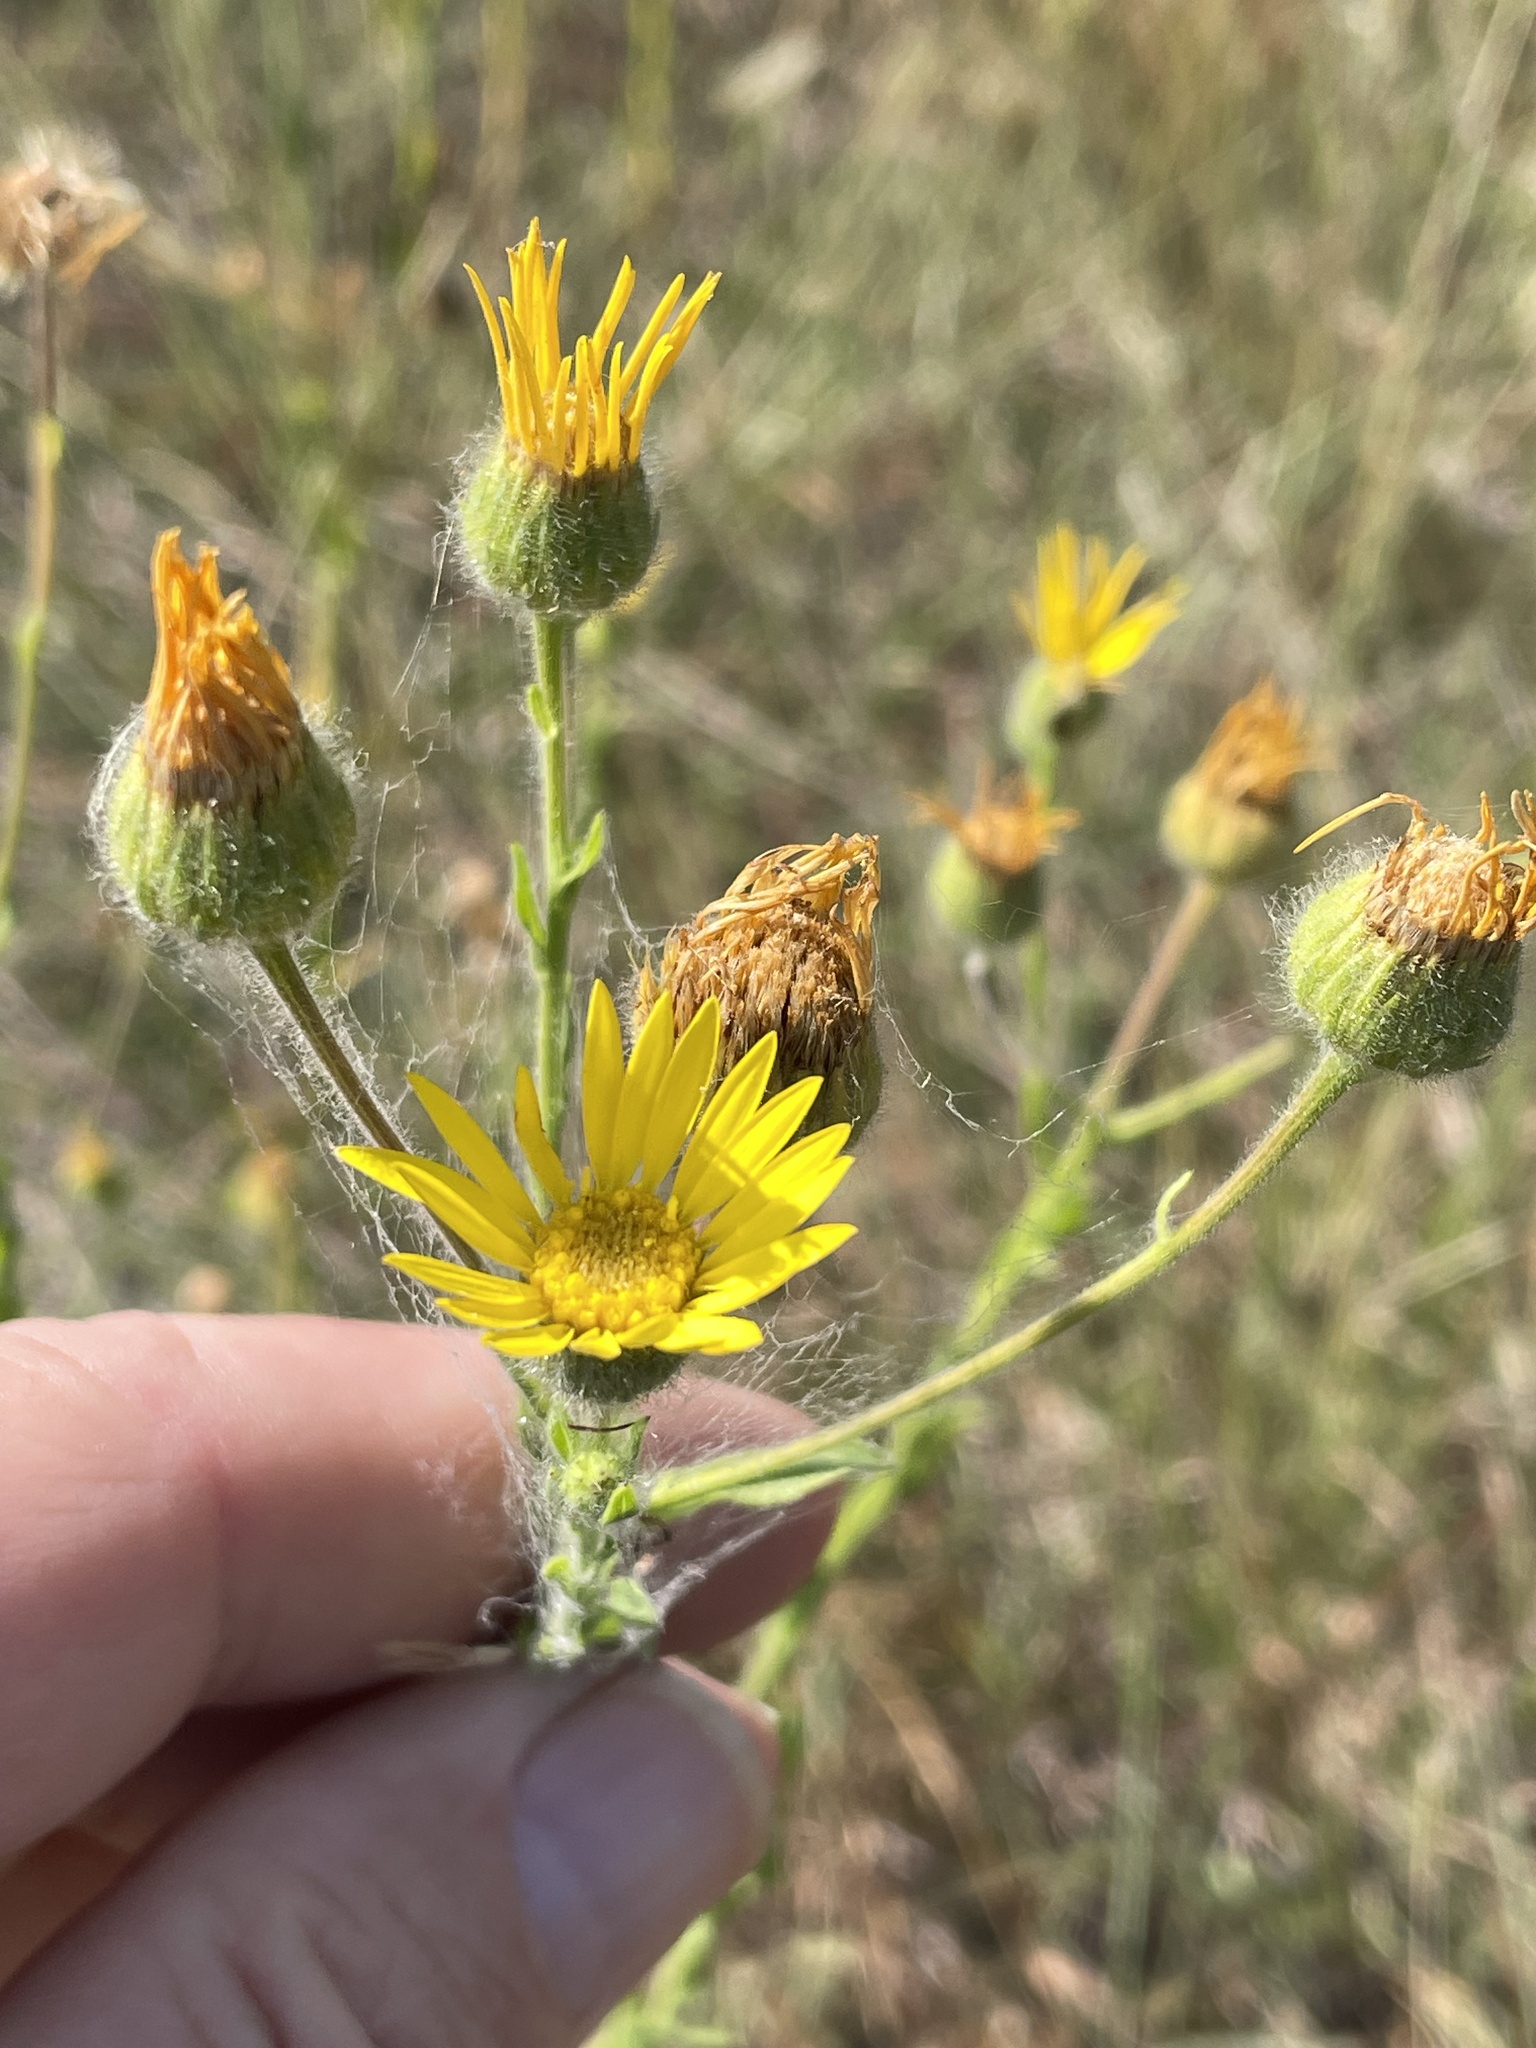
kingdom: Plantae
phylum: Tracheophyta
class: Magnoliopsida
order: Asterales
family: Asteraceae
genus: Bradburia
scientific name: Bradburia pilosa
